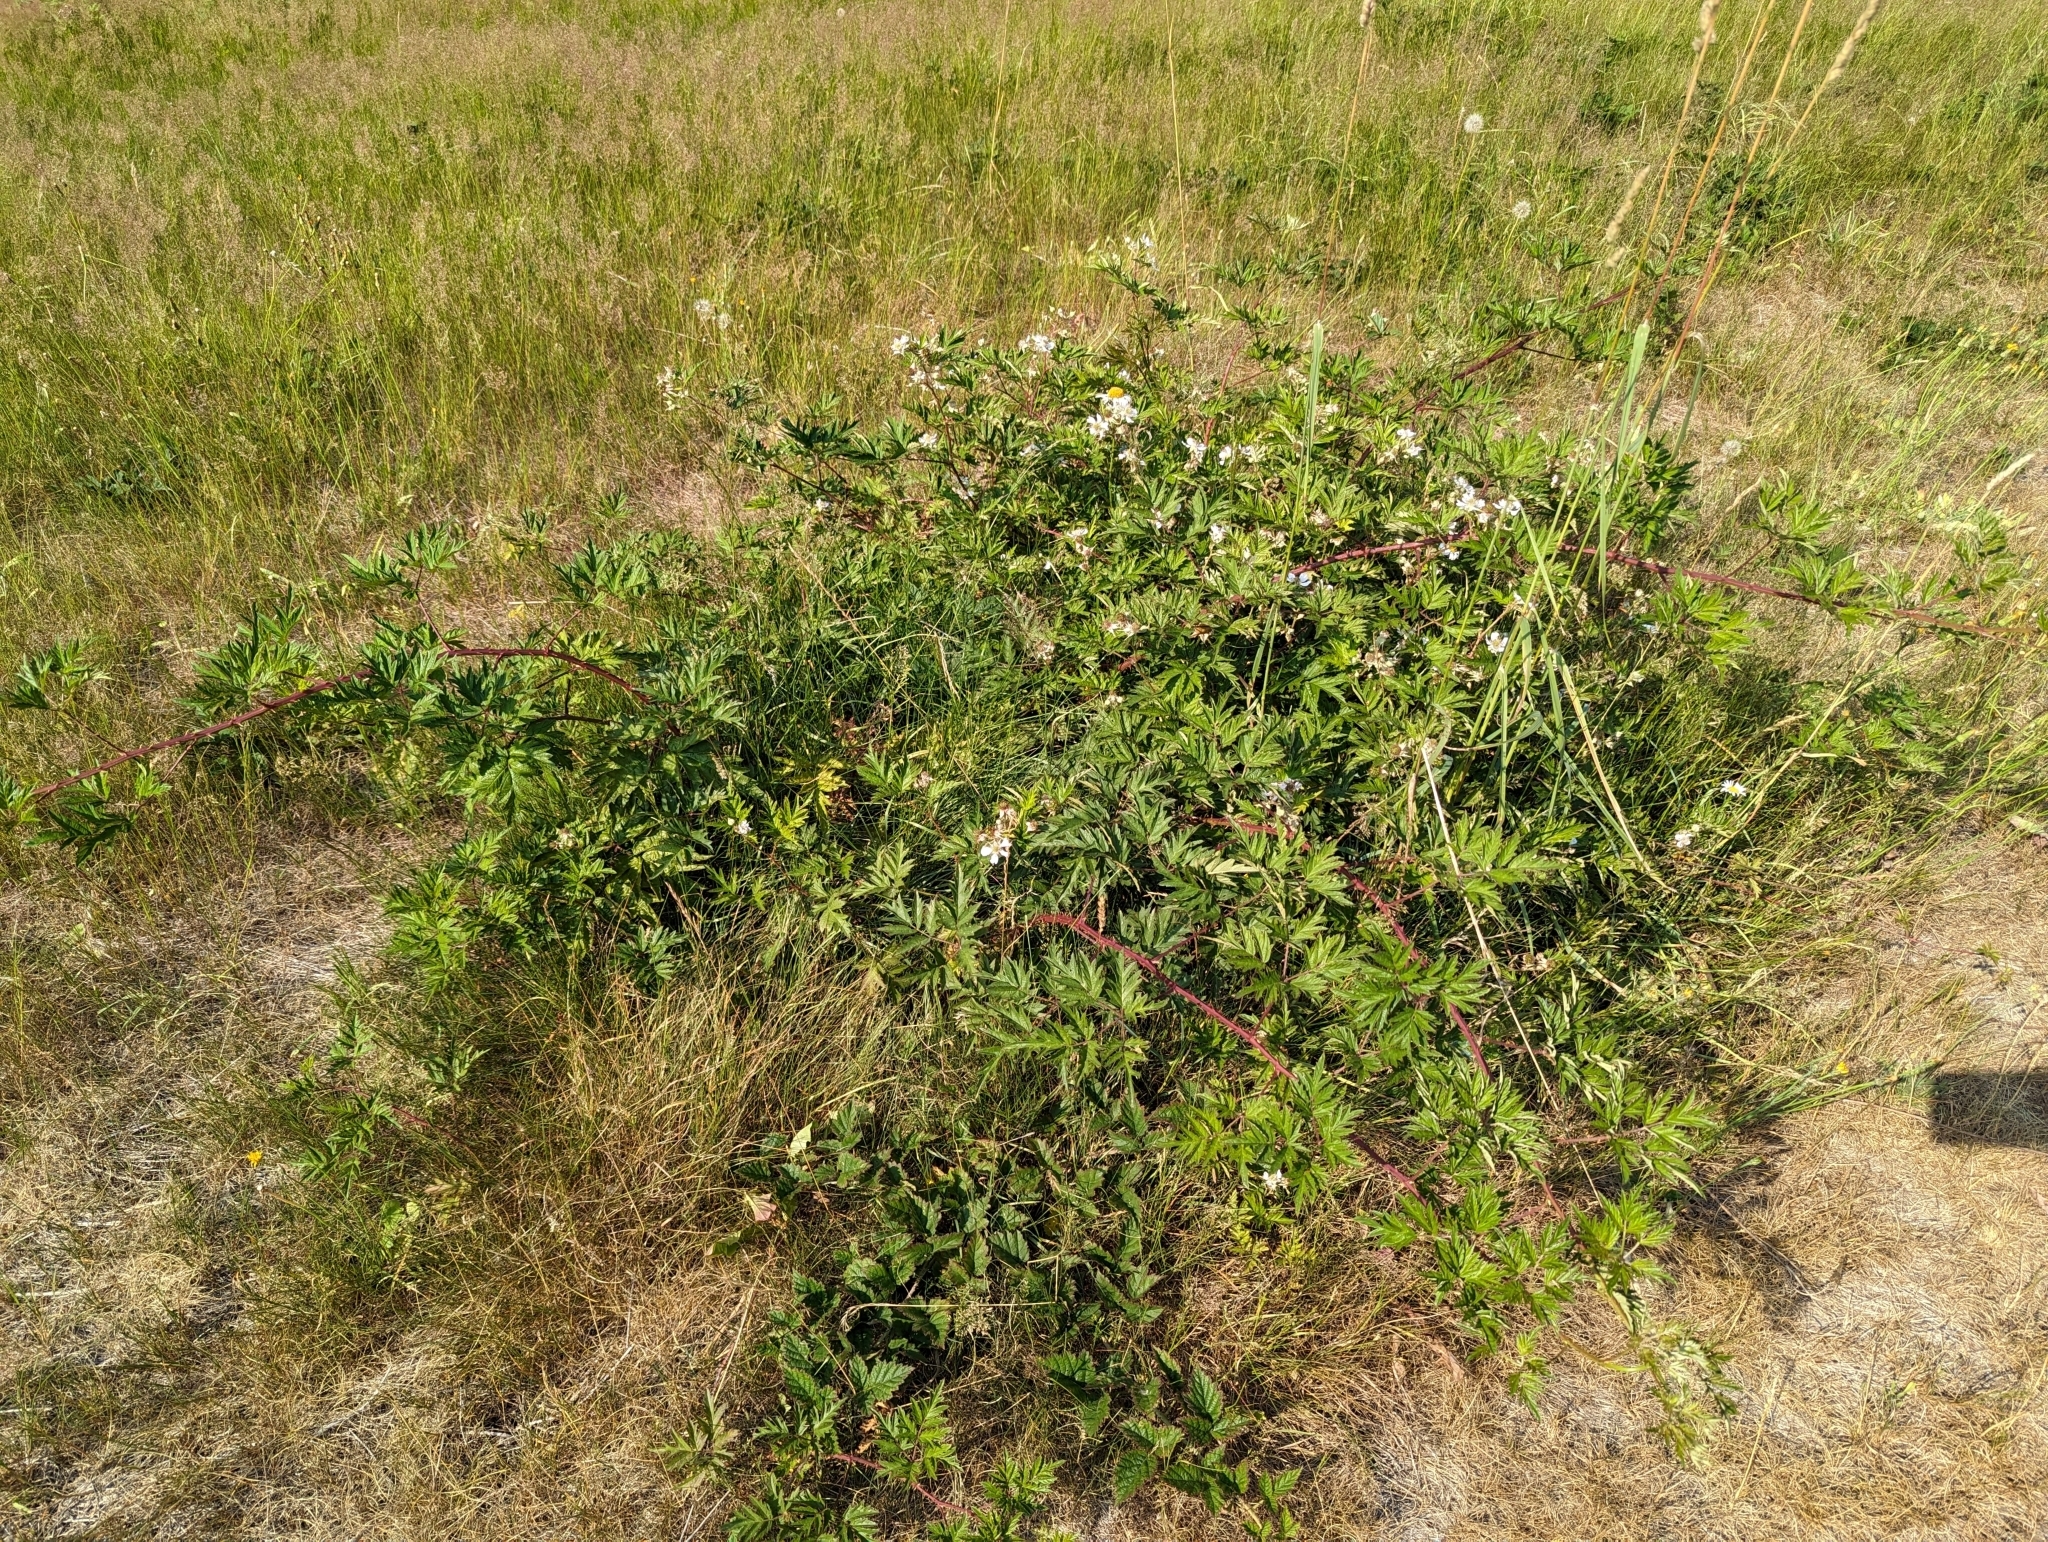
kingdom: Plantae
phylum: Tracheophyta
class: Magnoliopsida
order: Rosales
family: Rosaceae
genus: Rubus
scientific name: Rubus laciniatus
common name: Evergreen blackberry
